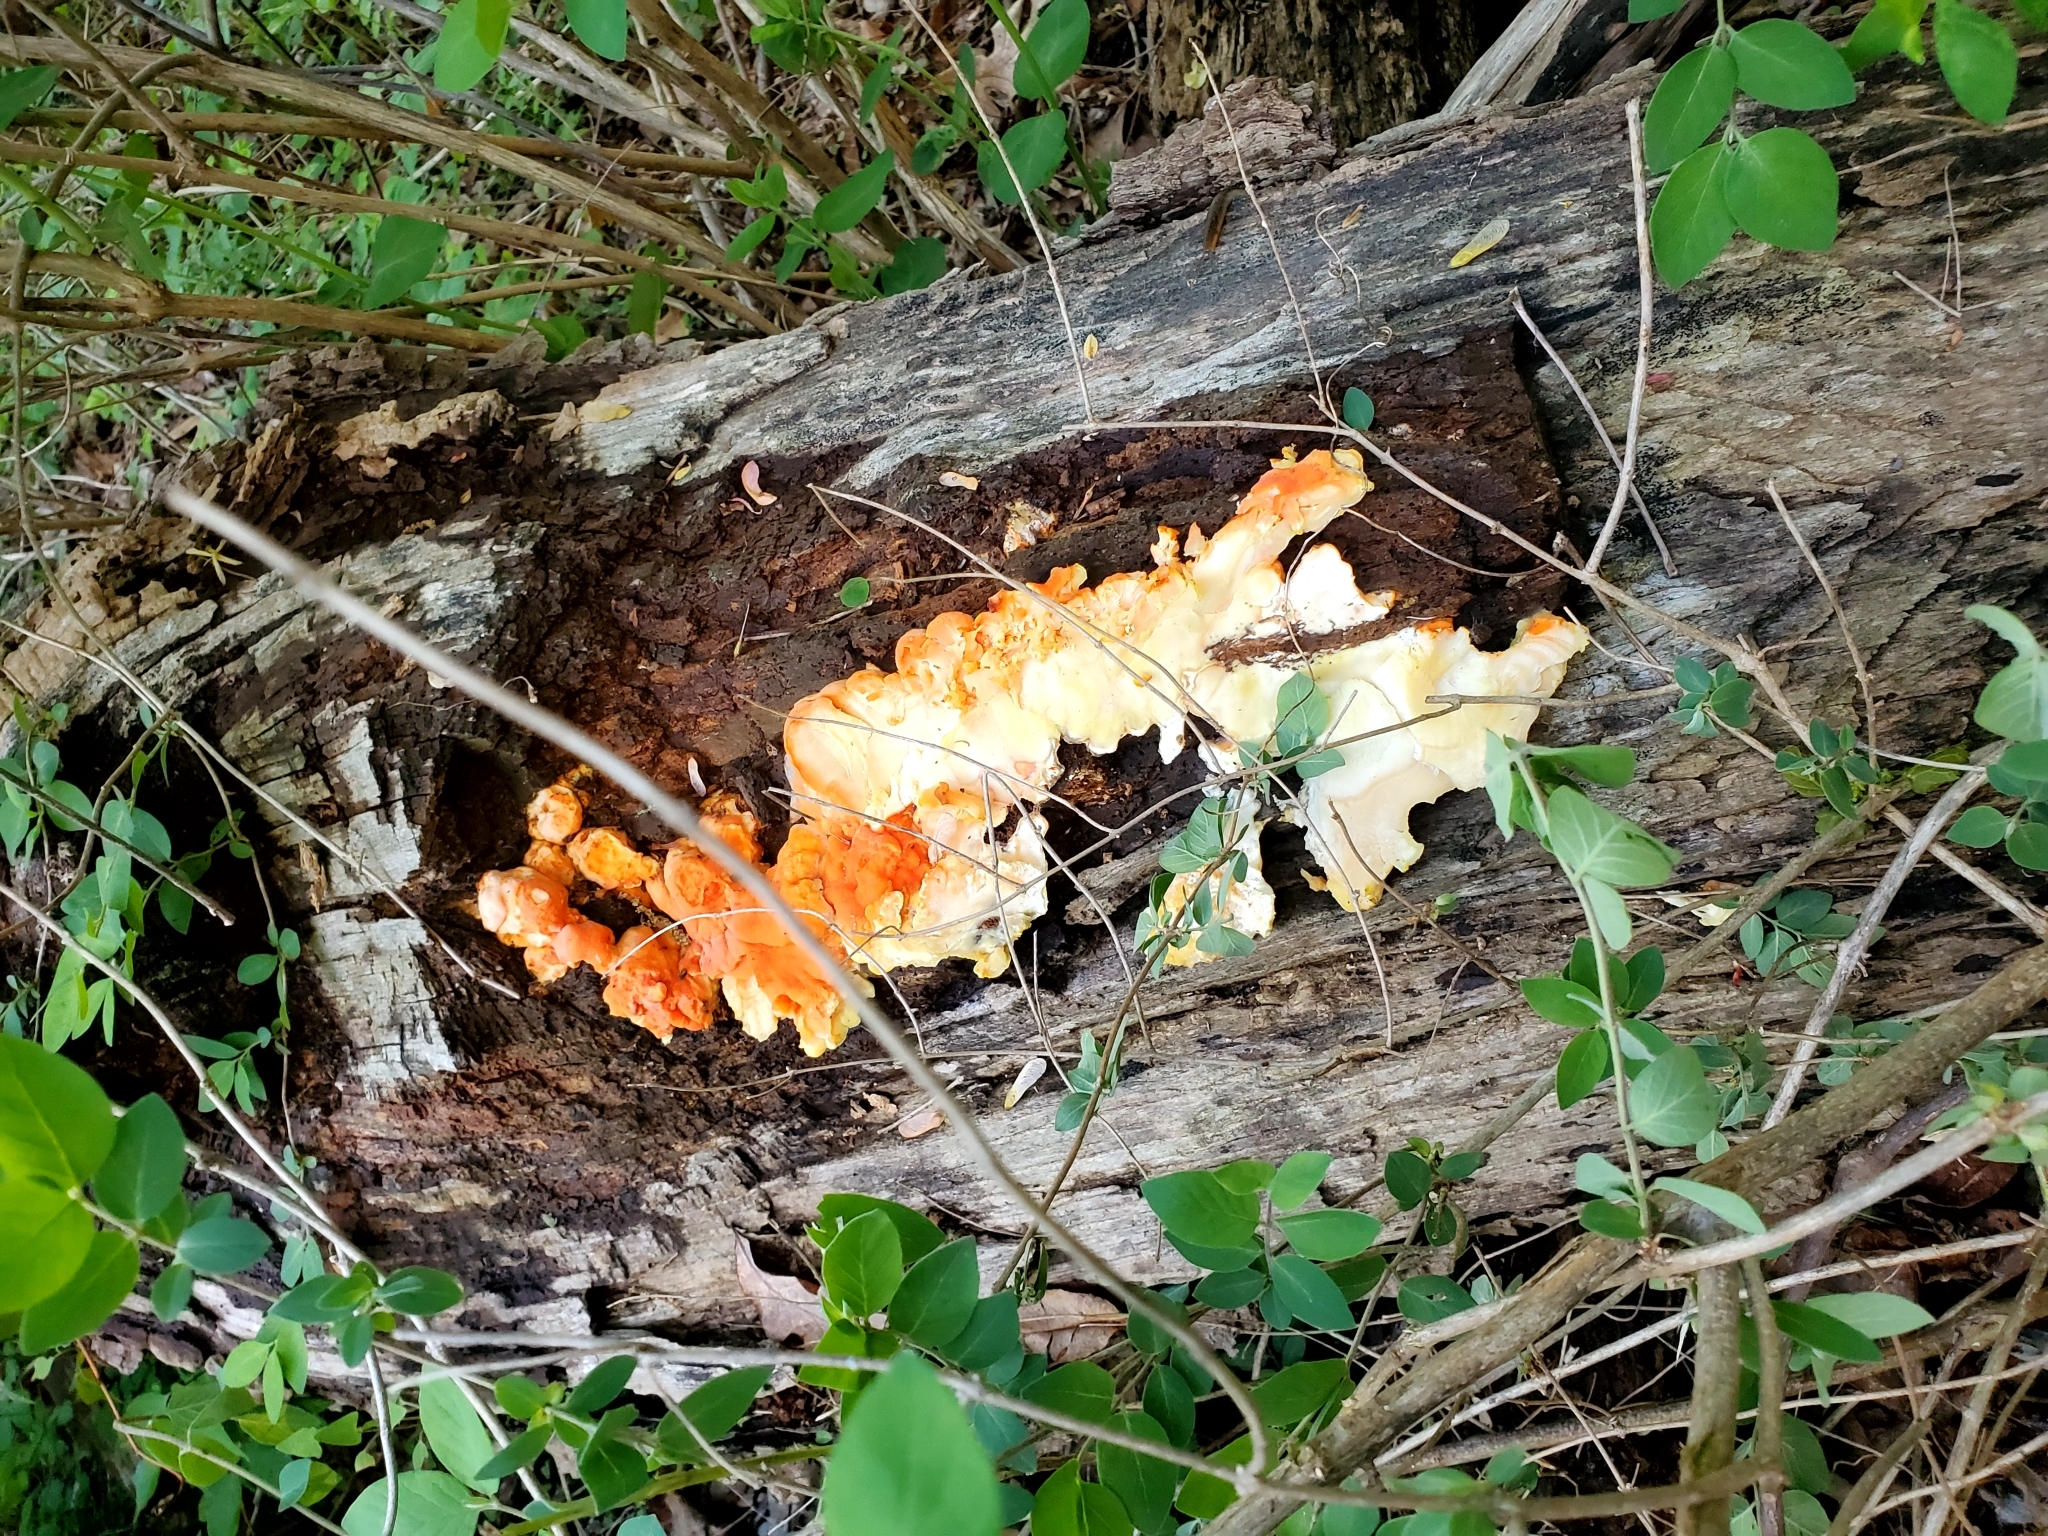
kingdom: Fungi
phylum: Basidiomycota
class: Agaricomycetes
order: Polyporales
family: Laetiporaceae
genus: Laetiporus
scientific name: Laetiporus sulphureus
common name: Chicken of the woods
